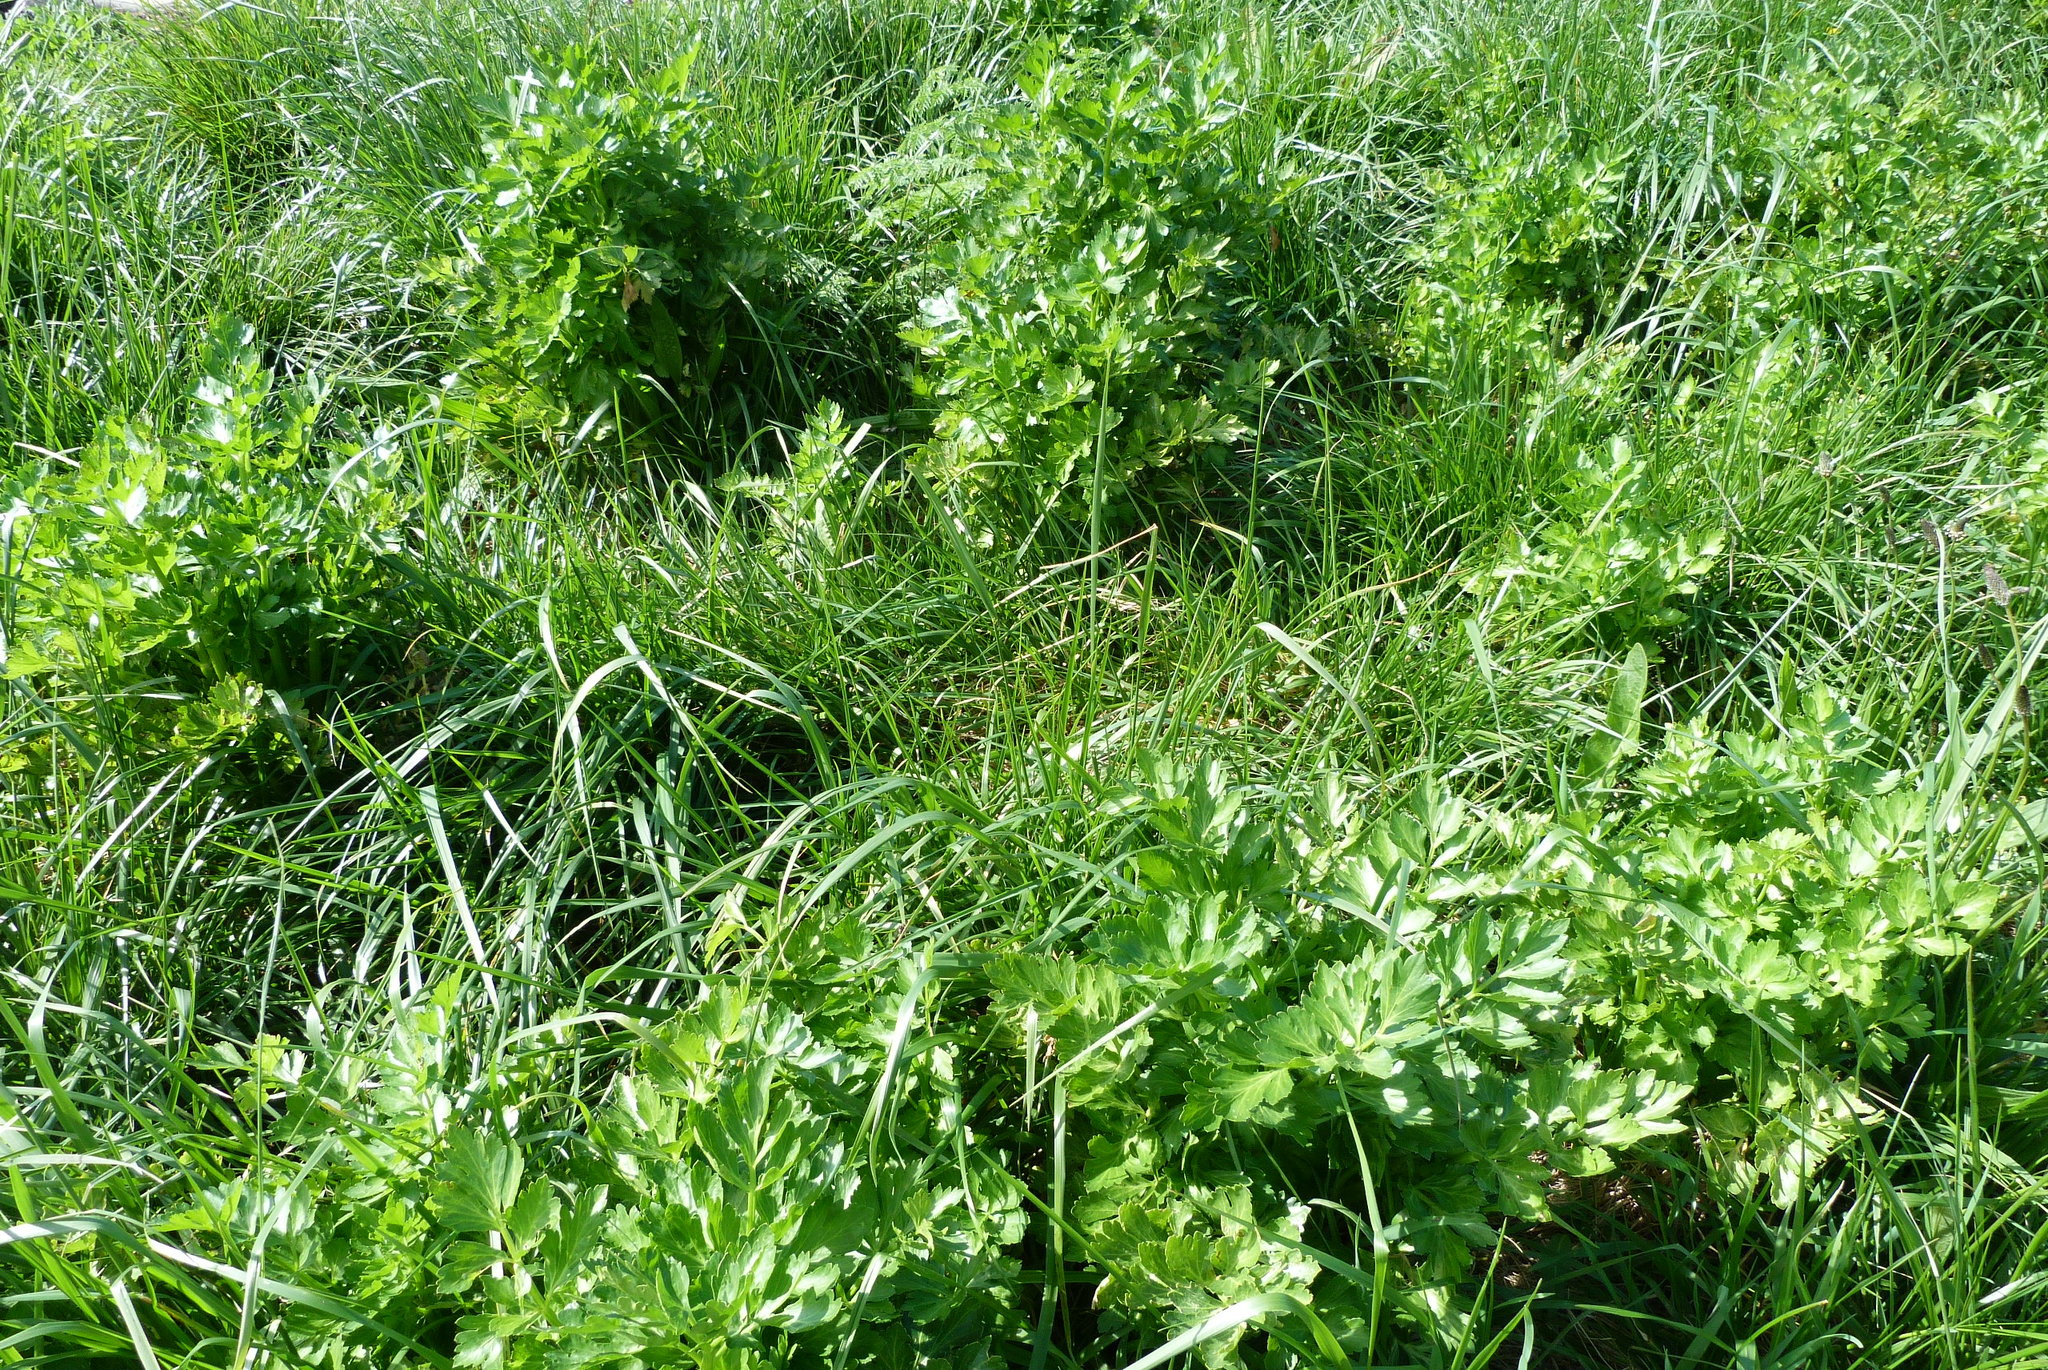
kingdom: Plantae
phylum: Tracheophyta
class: Magnoliopsida
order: Apiales
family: Apiaceae
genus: Apium
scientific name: Apium graveolens
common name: Wild celery
